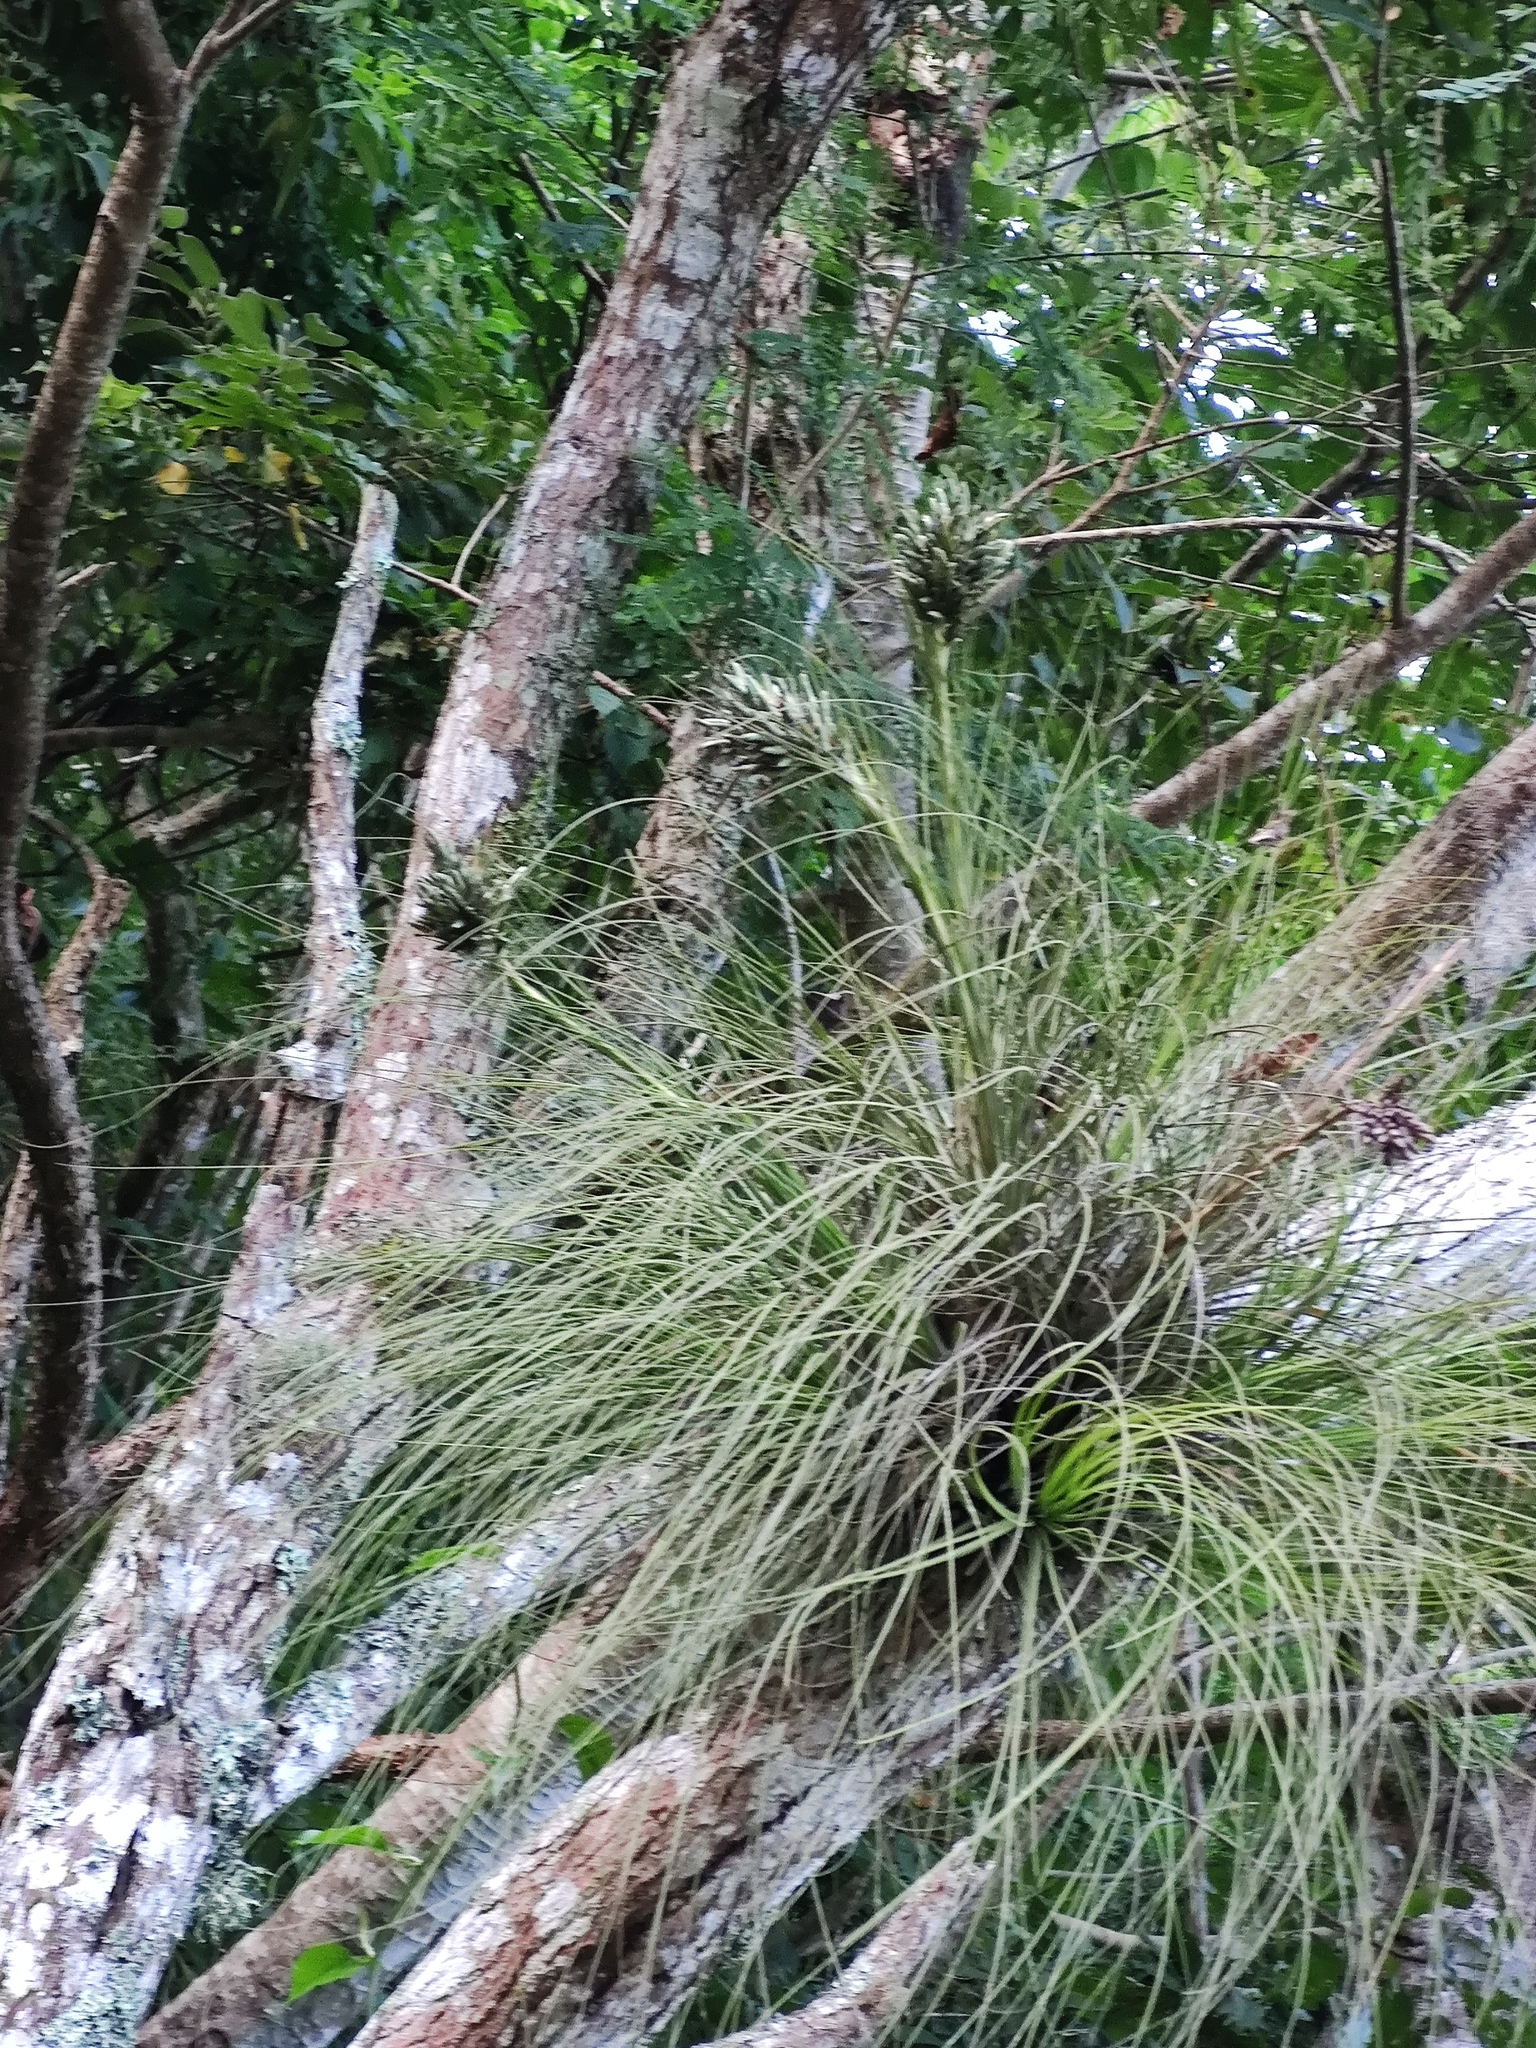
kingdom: Plantae
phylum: Tracheophyta
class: Liliopsida
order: Poales
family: Bromeliaceae
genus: Tillandsia
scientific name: Tillandsia juncea
